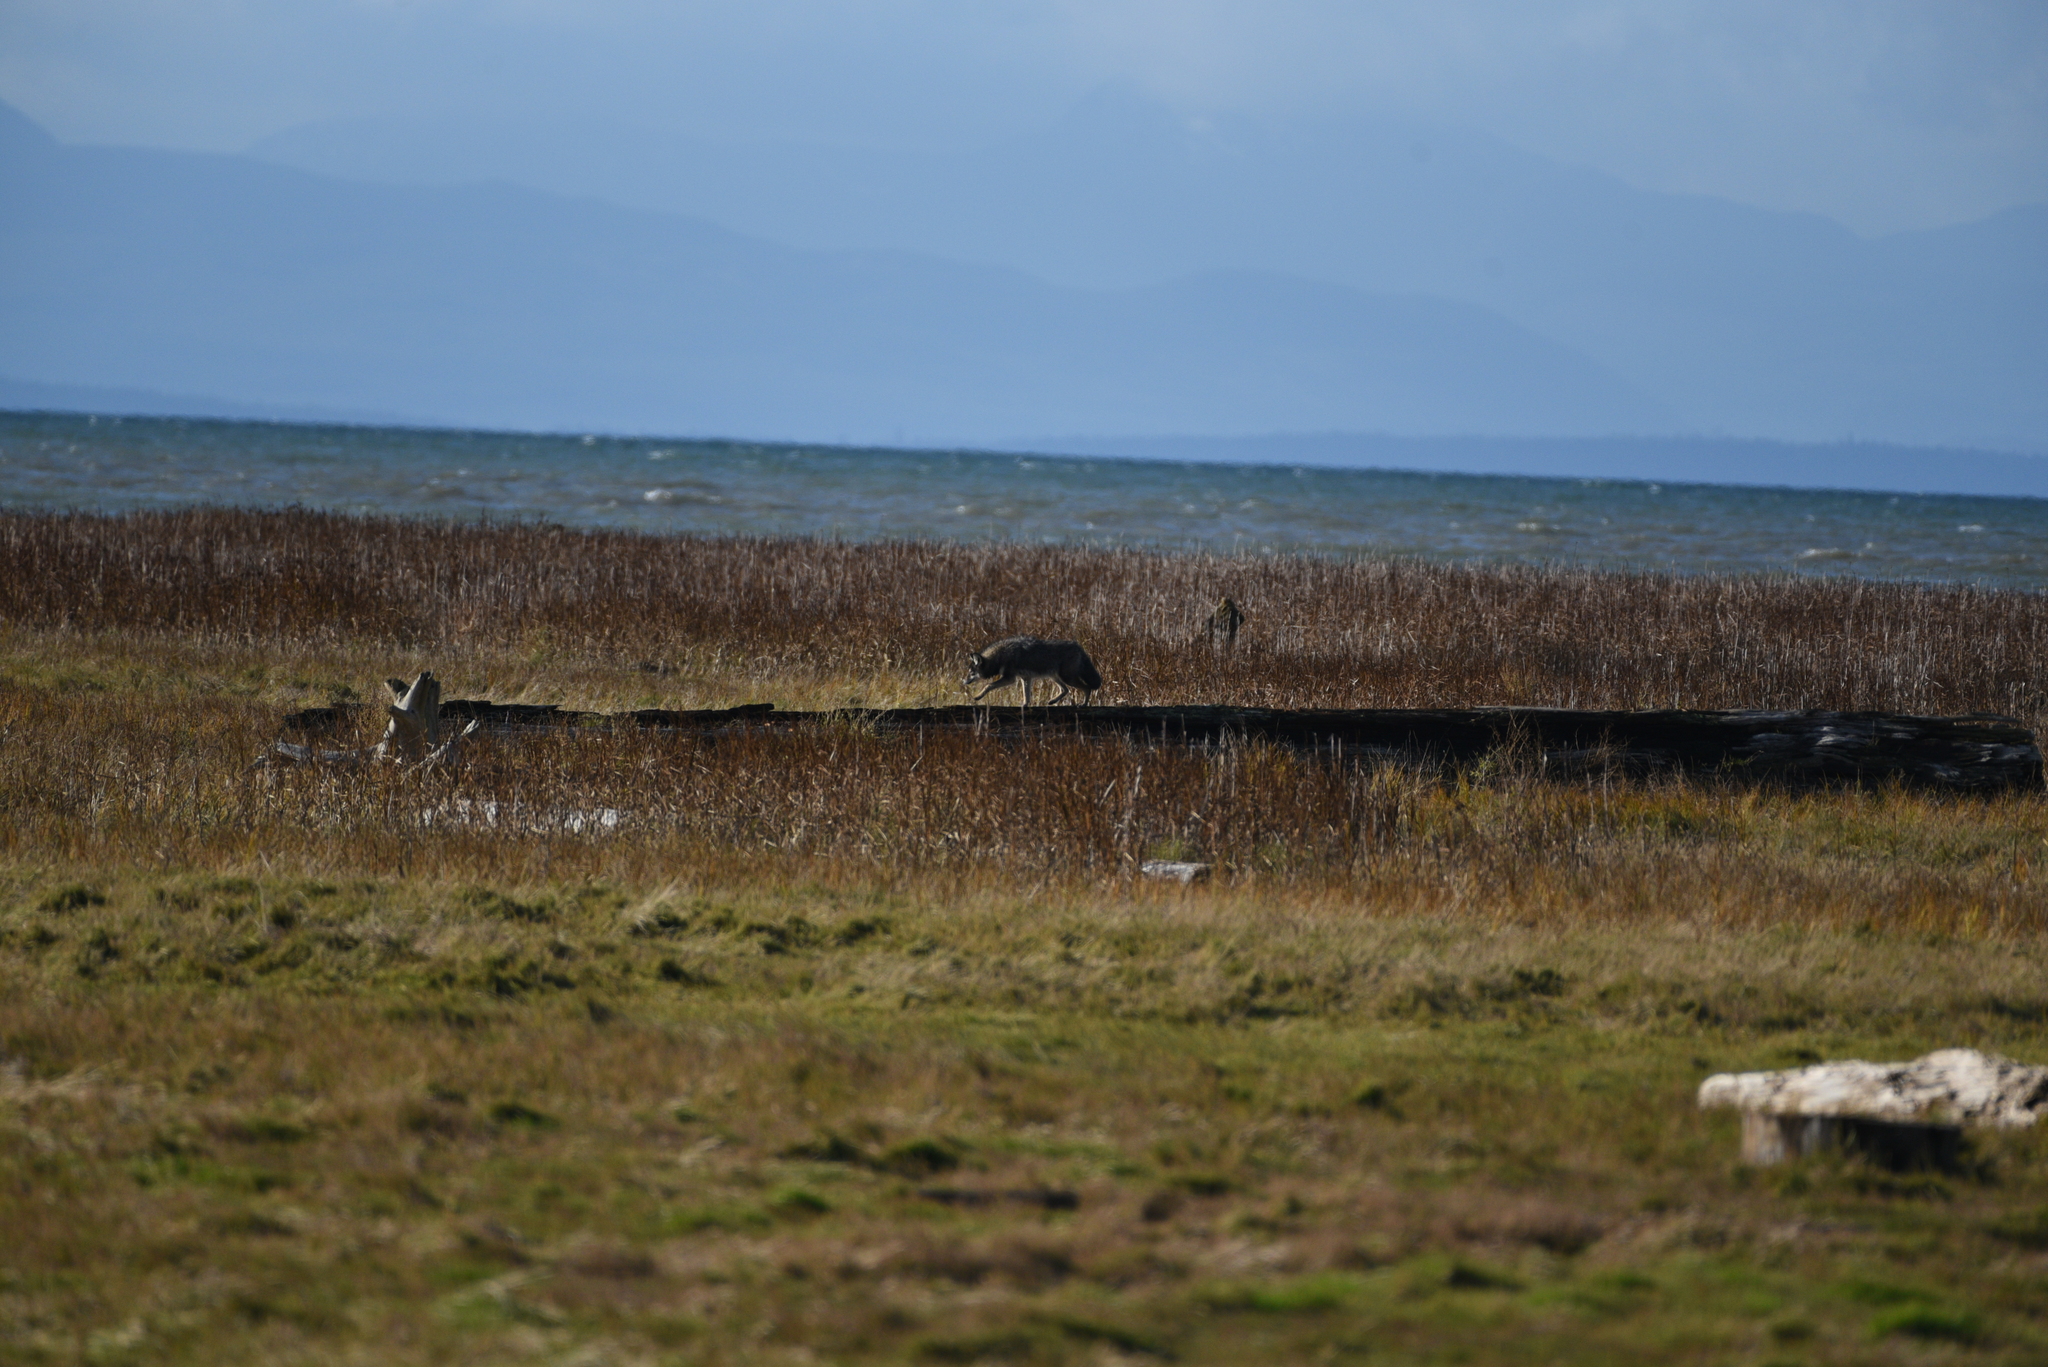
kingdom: Animalia
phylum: Chordata
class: Mammalia
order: Carnivora
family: Canidae
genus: Canis
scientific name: Canis latrans
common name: Coyote
